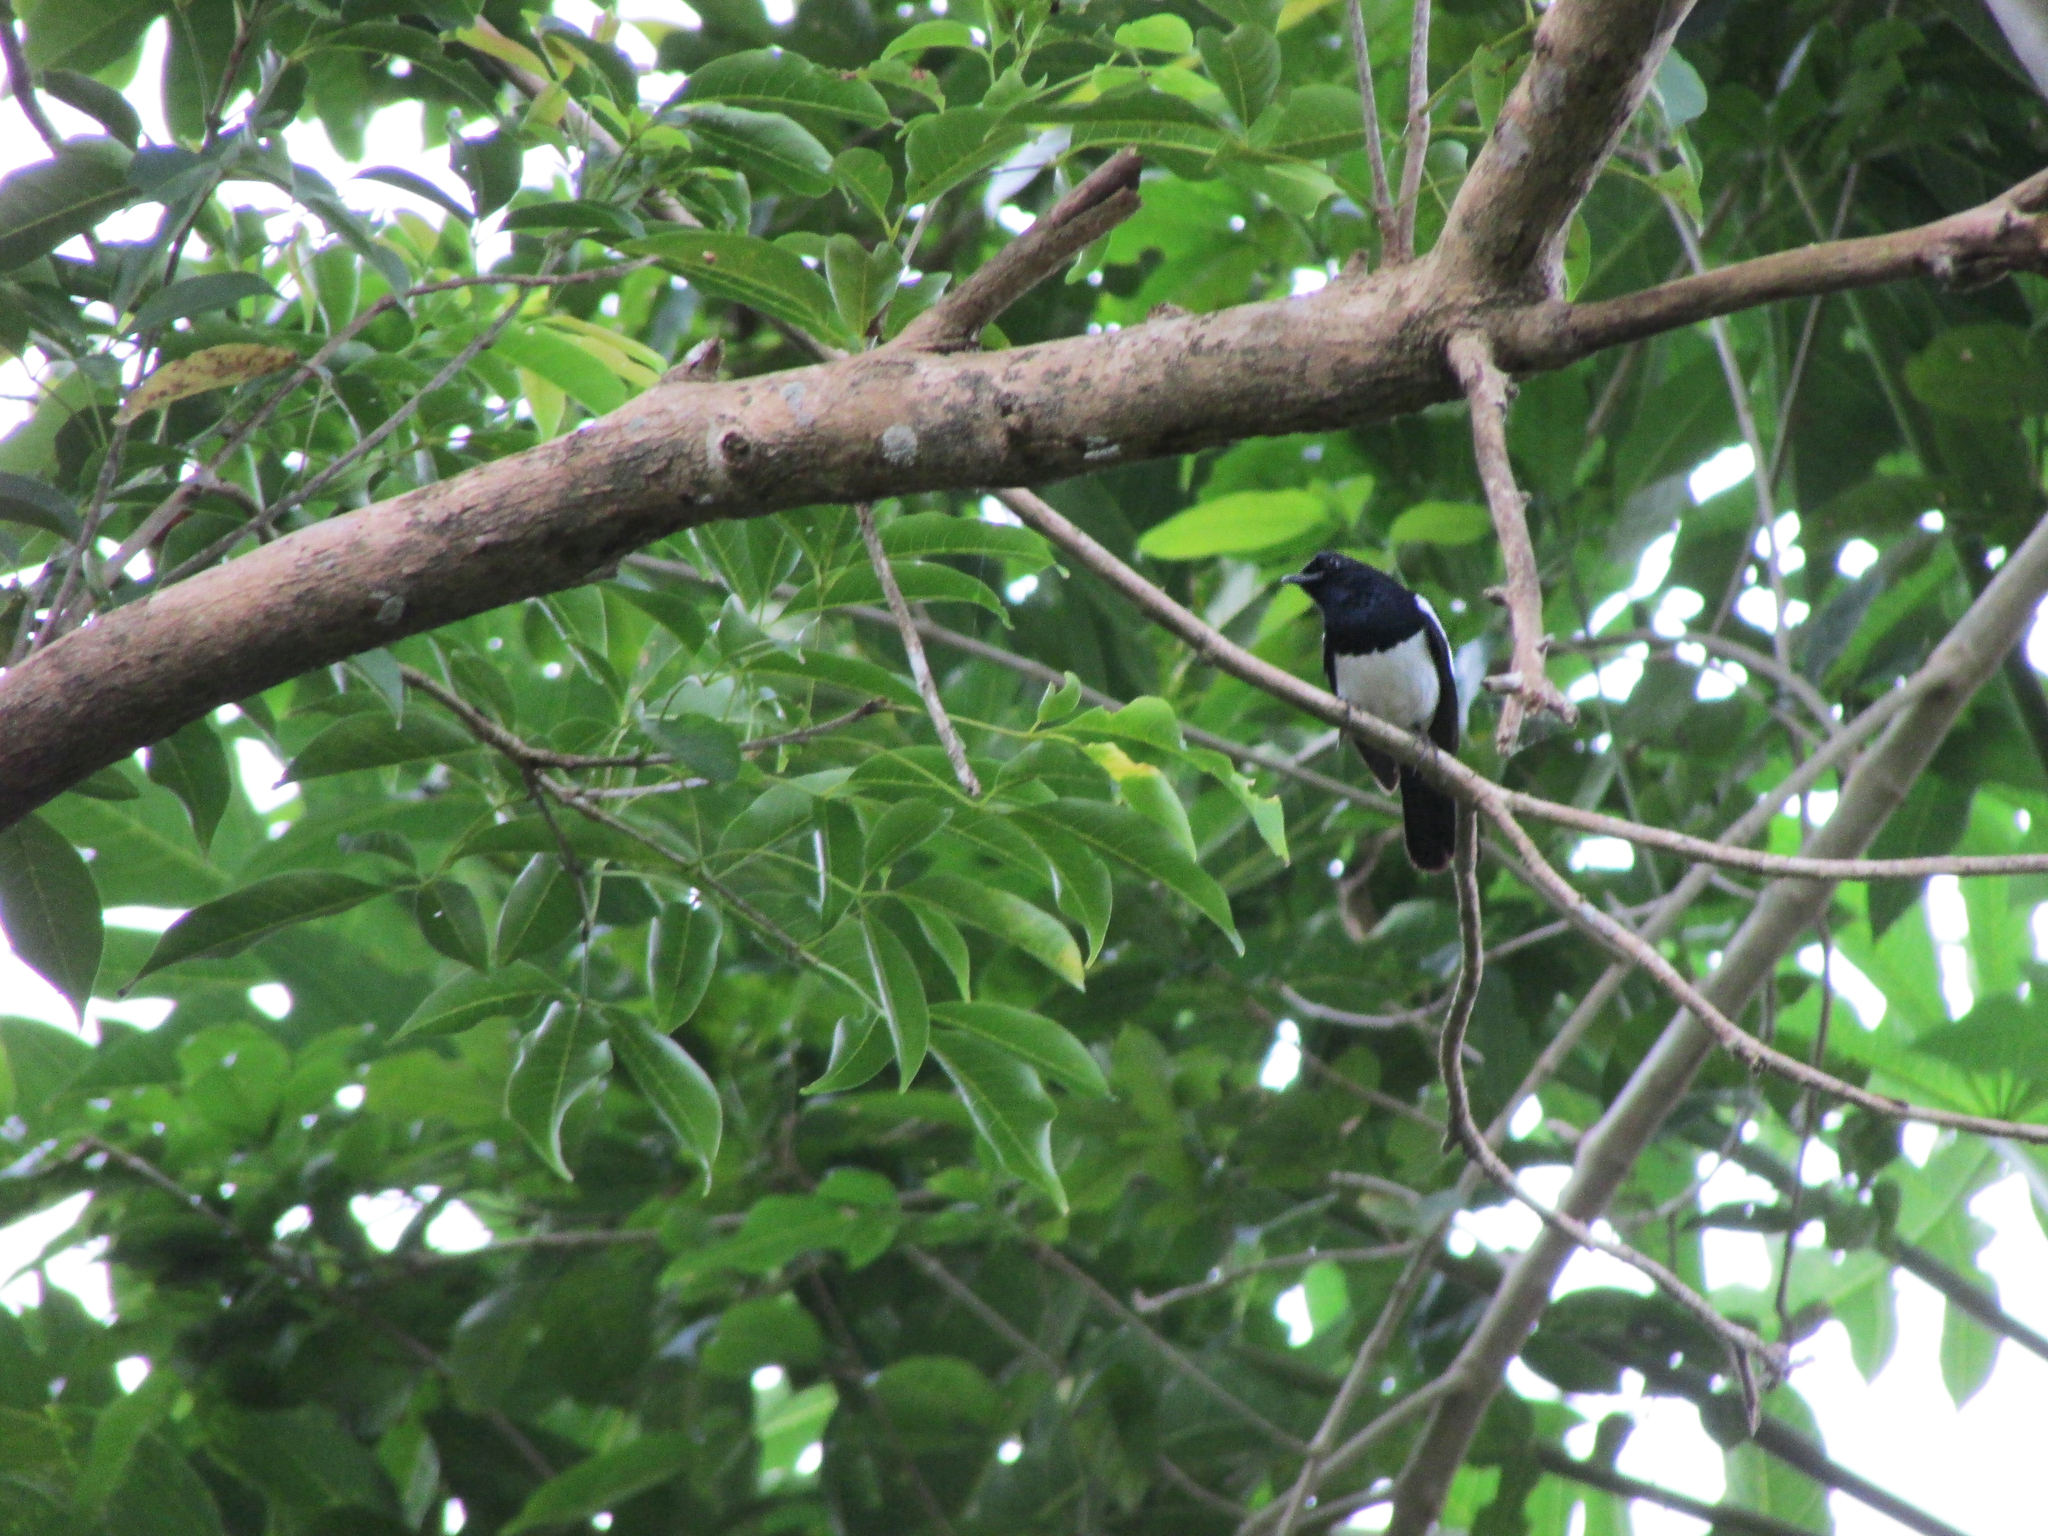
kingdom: Animalia
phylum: Chordata
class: Aves
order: Passeriformes
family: Muscicapidae
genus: Copsychus
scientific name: Copsychus mindanensis
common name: Philippine magpie-robin
